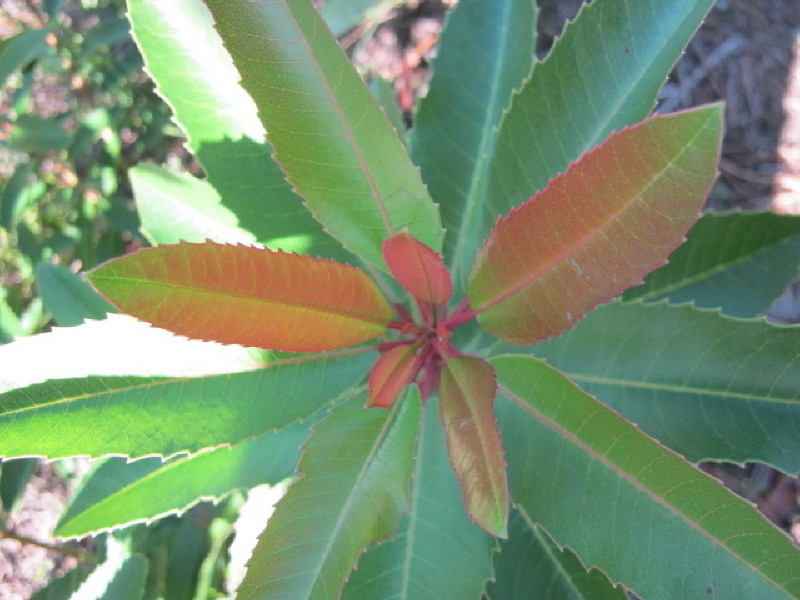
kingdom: Plantae
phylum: Tracheophyta
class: Magnoliopsida
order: Sapindales
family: Anacardiaceae
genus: Laurophyllus
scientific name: Laurophyllus capensis
